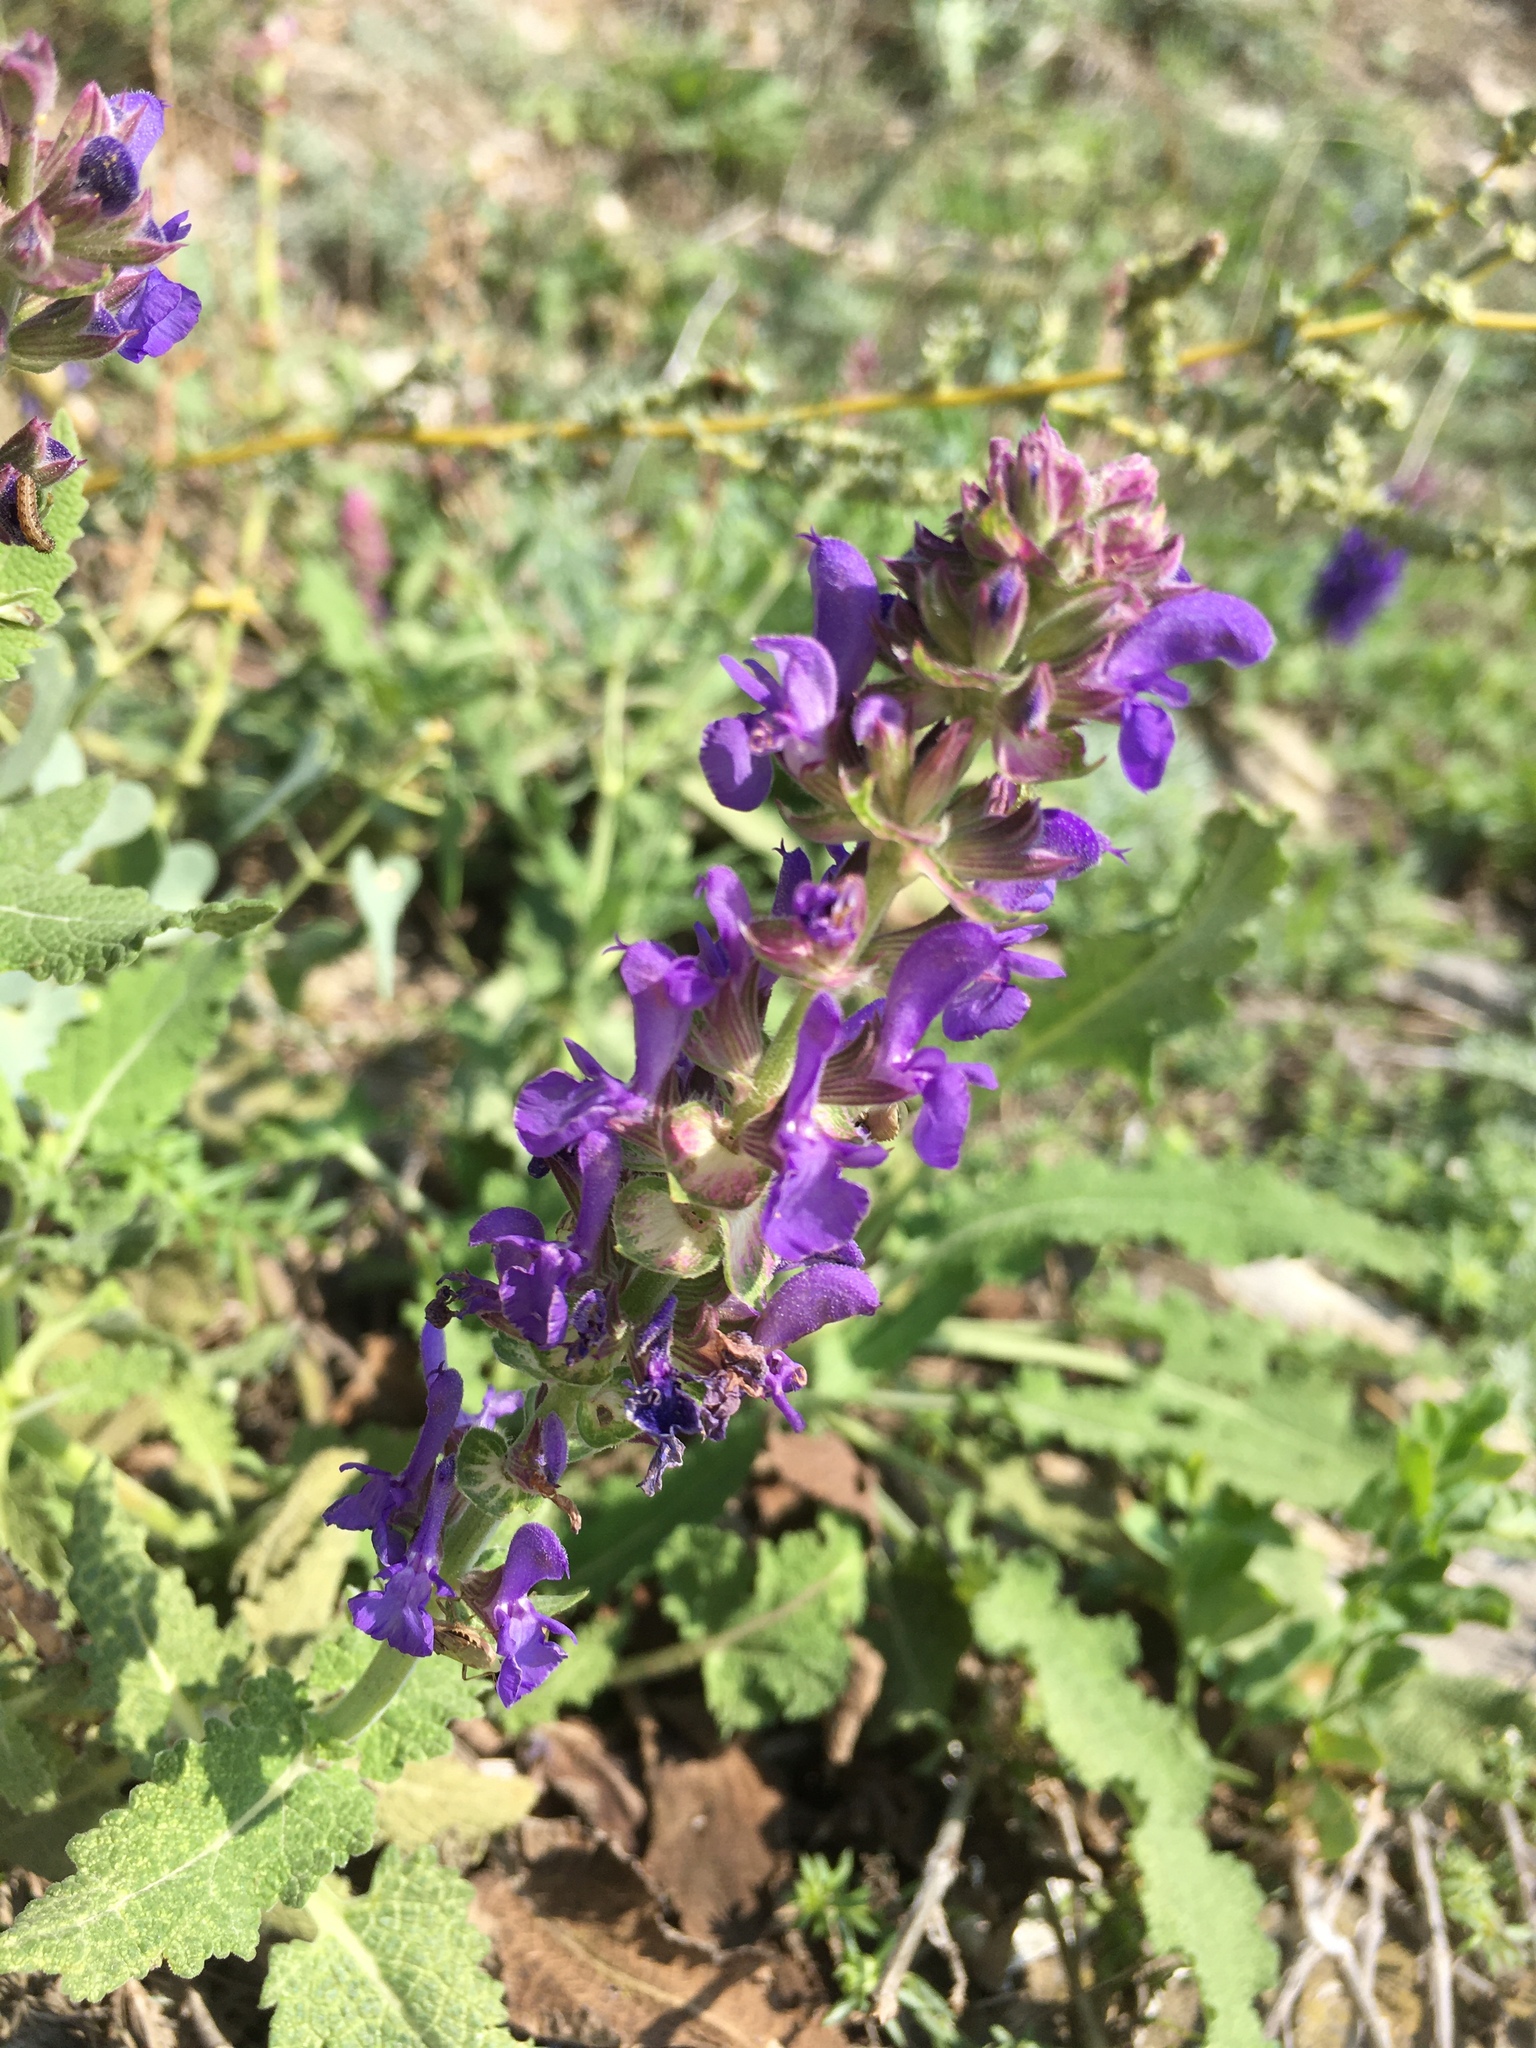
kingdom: Plantae
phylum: Tracheophyta
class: Magnoliopsida
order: Lamiales
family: Lamiaceae
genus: Salvia
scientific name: Salvia nemorosa
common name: Balkan clary
